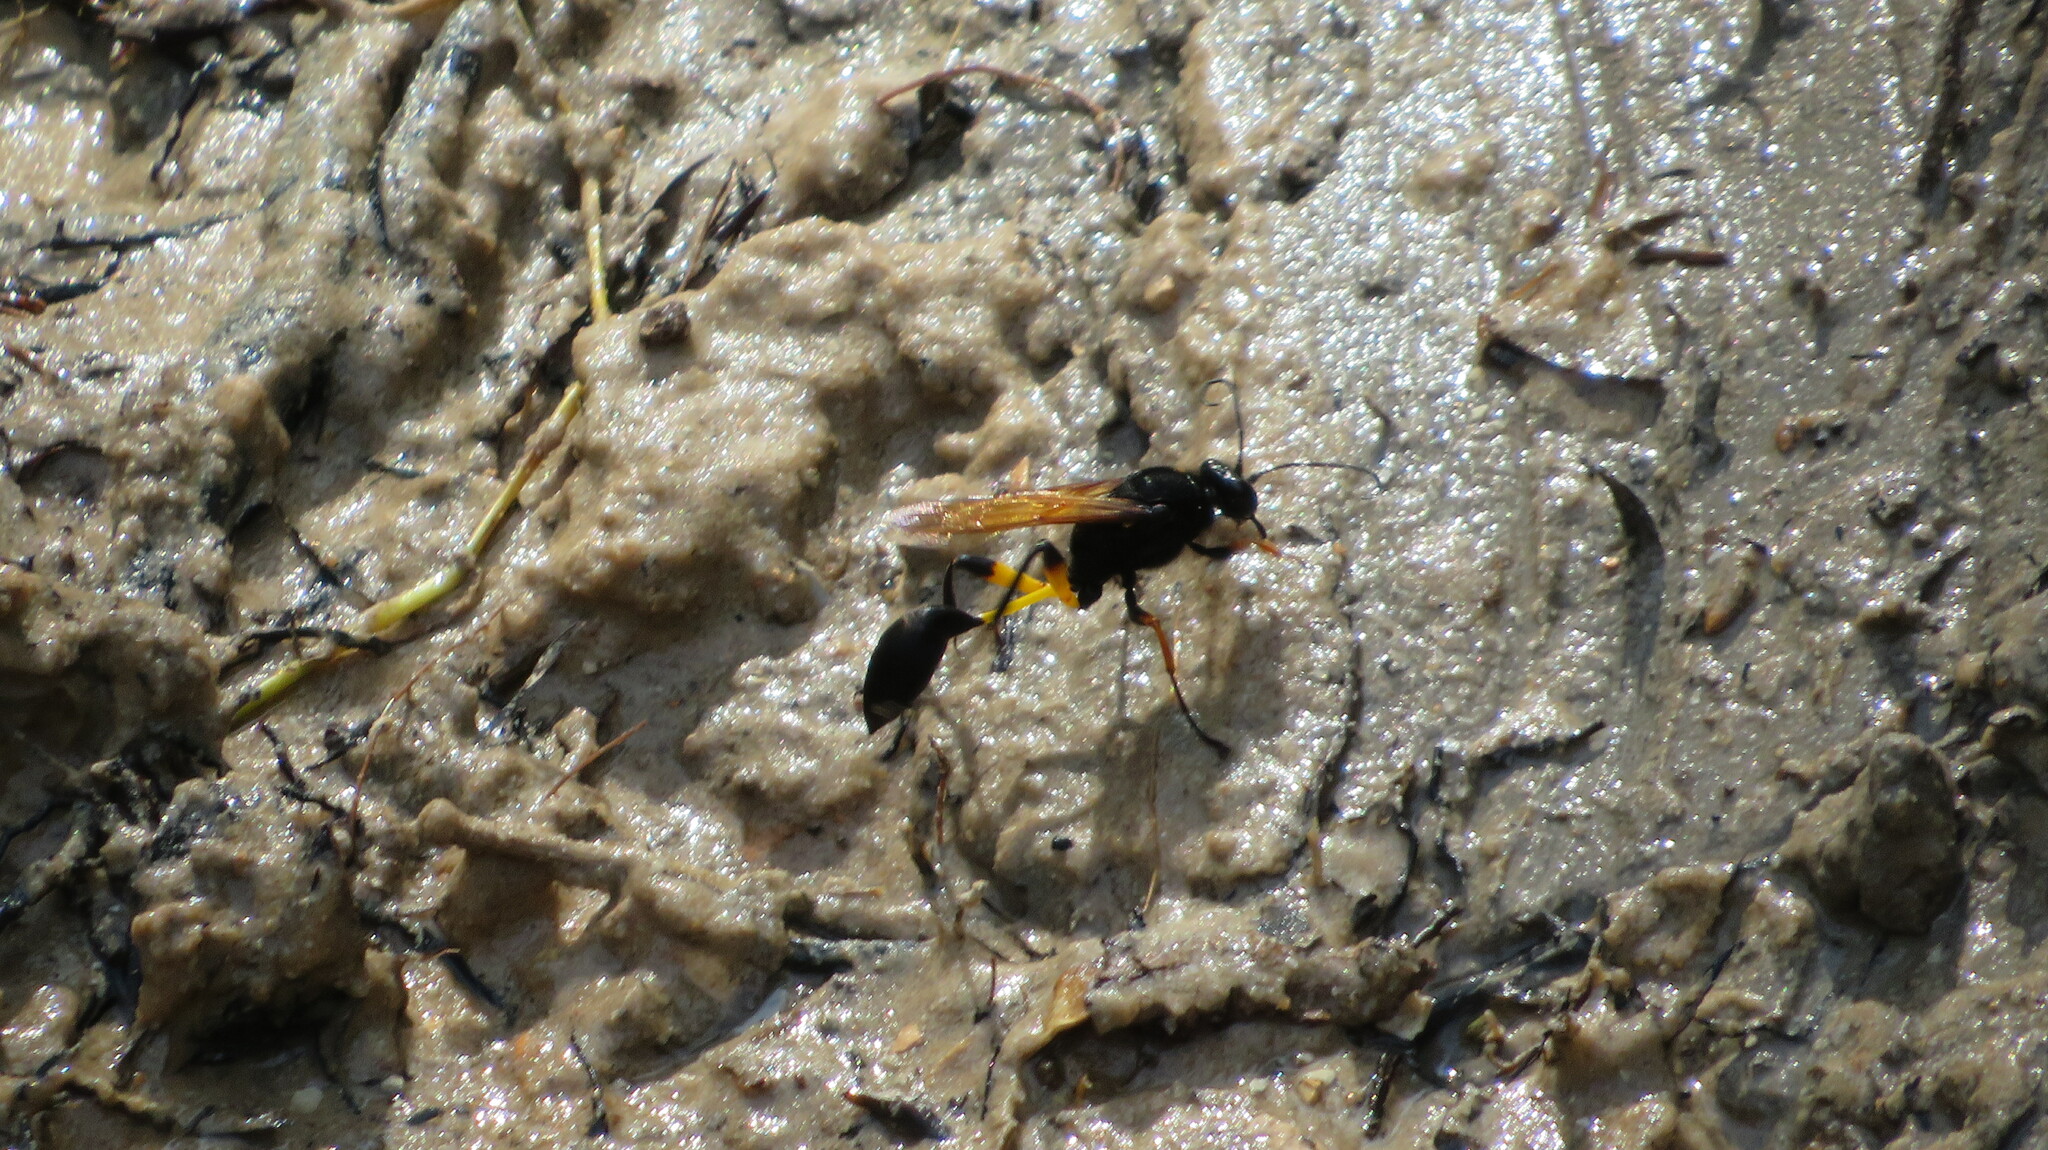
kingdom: Animalia
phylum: Arthropoda
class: Insecta
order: Hymenoptera
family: Sphecidae
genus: Sceliphron
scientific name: Sceliphron javanum
